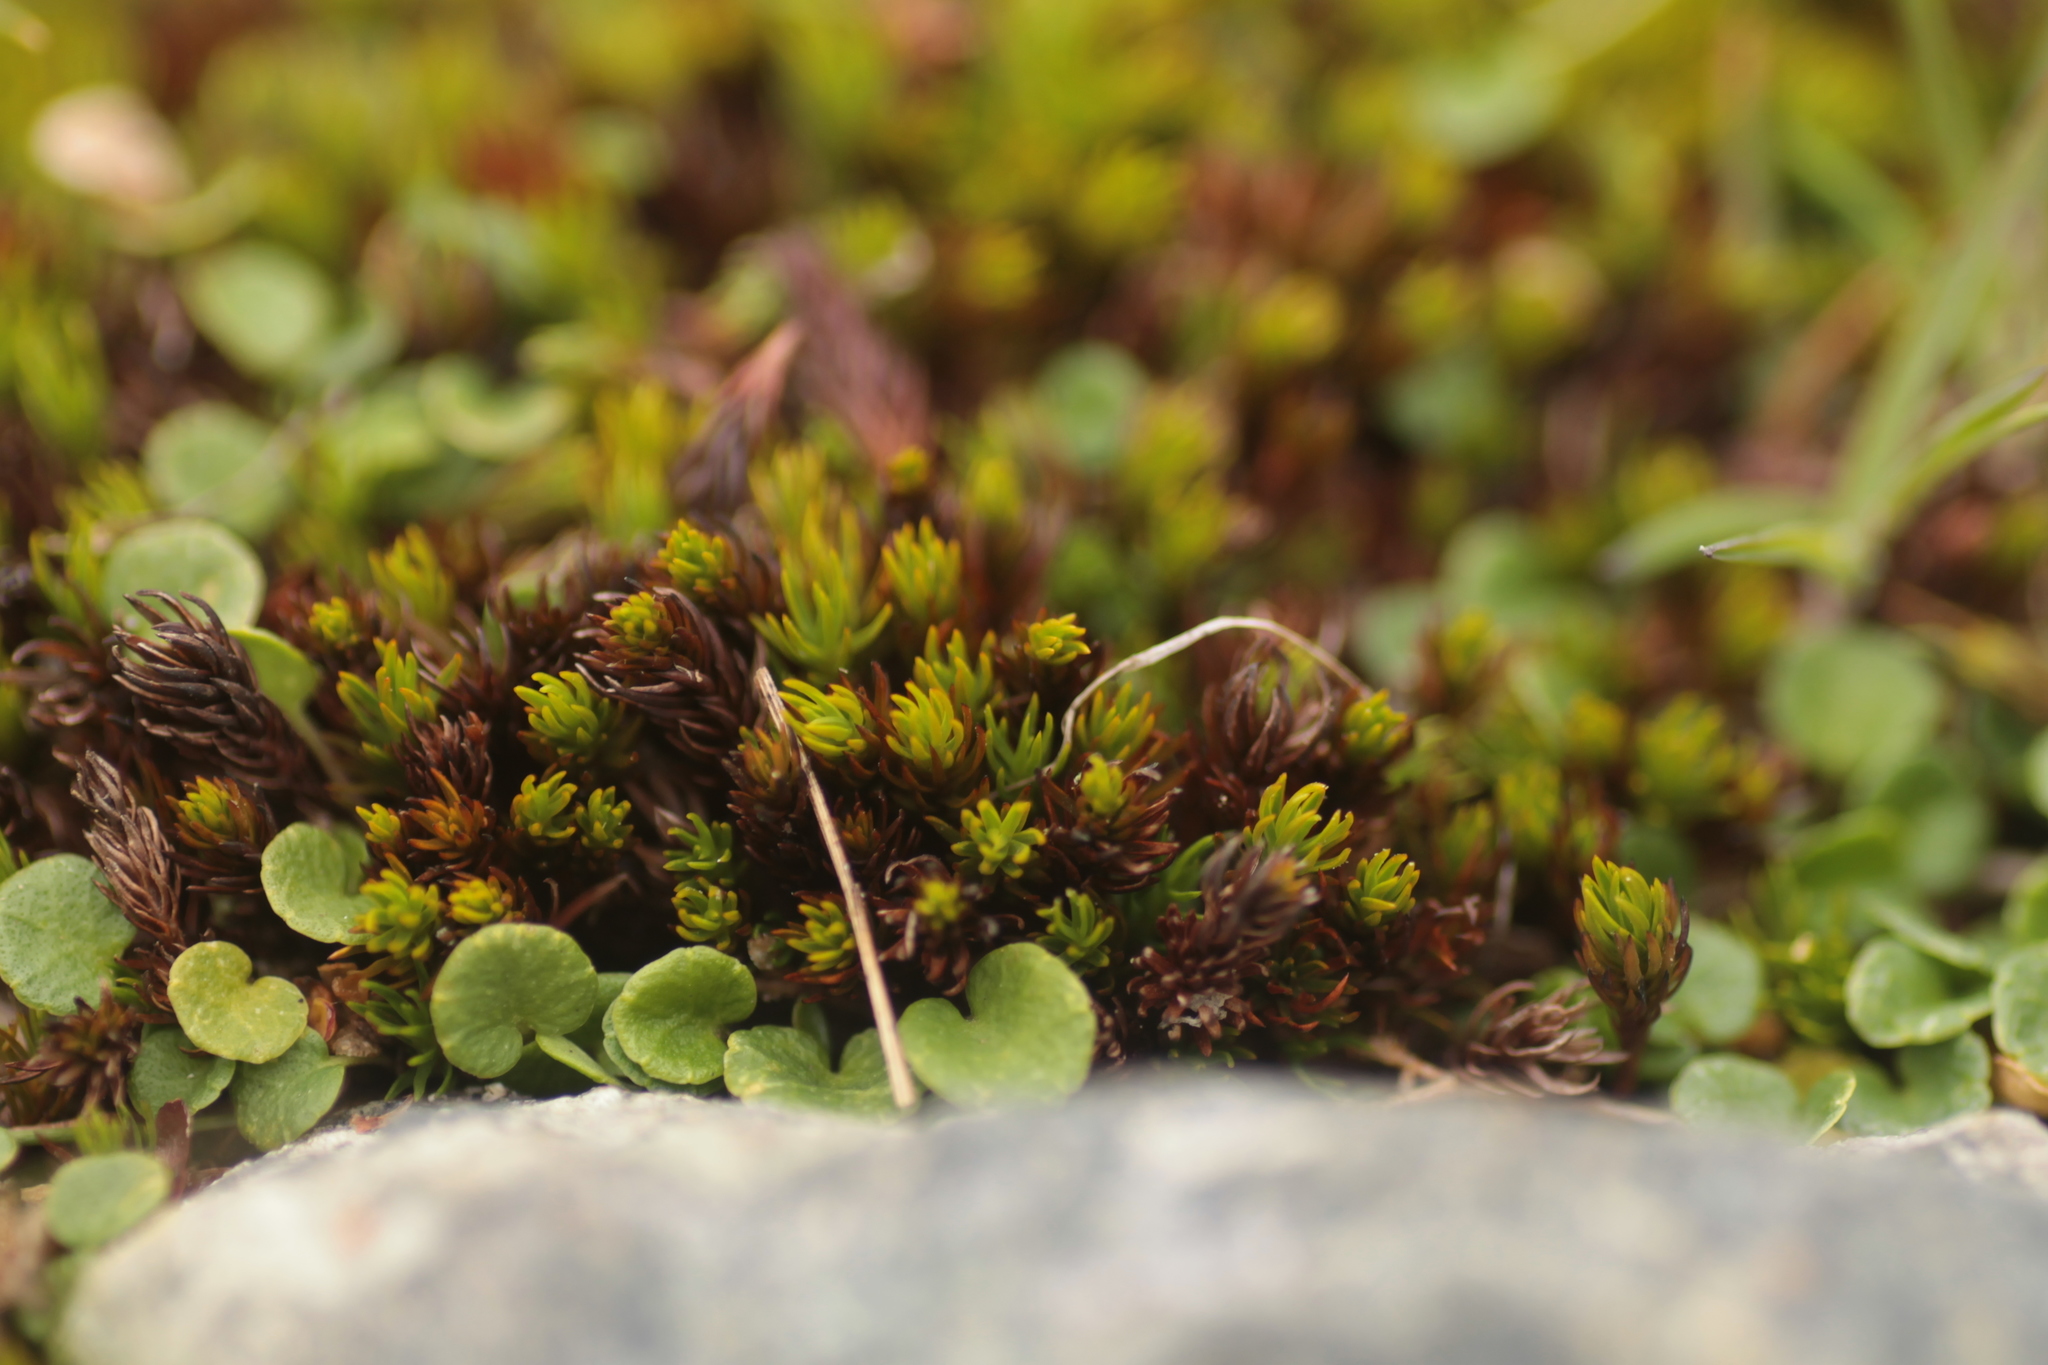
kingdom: Plantae
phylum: Bryophyta
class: Polytrichopsida
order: Polytrichales
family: Polytrichaceae
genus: Polytrichastrum
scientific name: Polytrichastrum sexangulare
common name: Northern haircap
